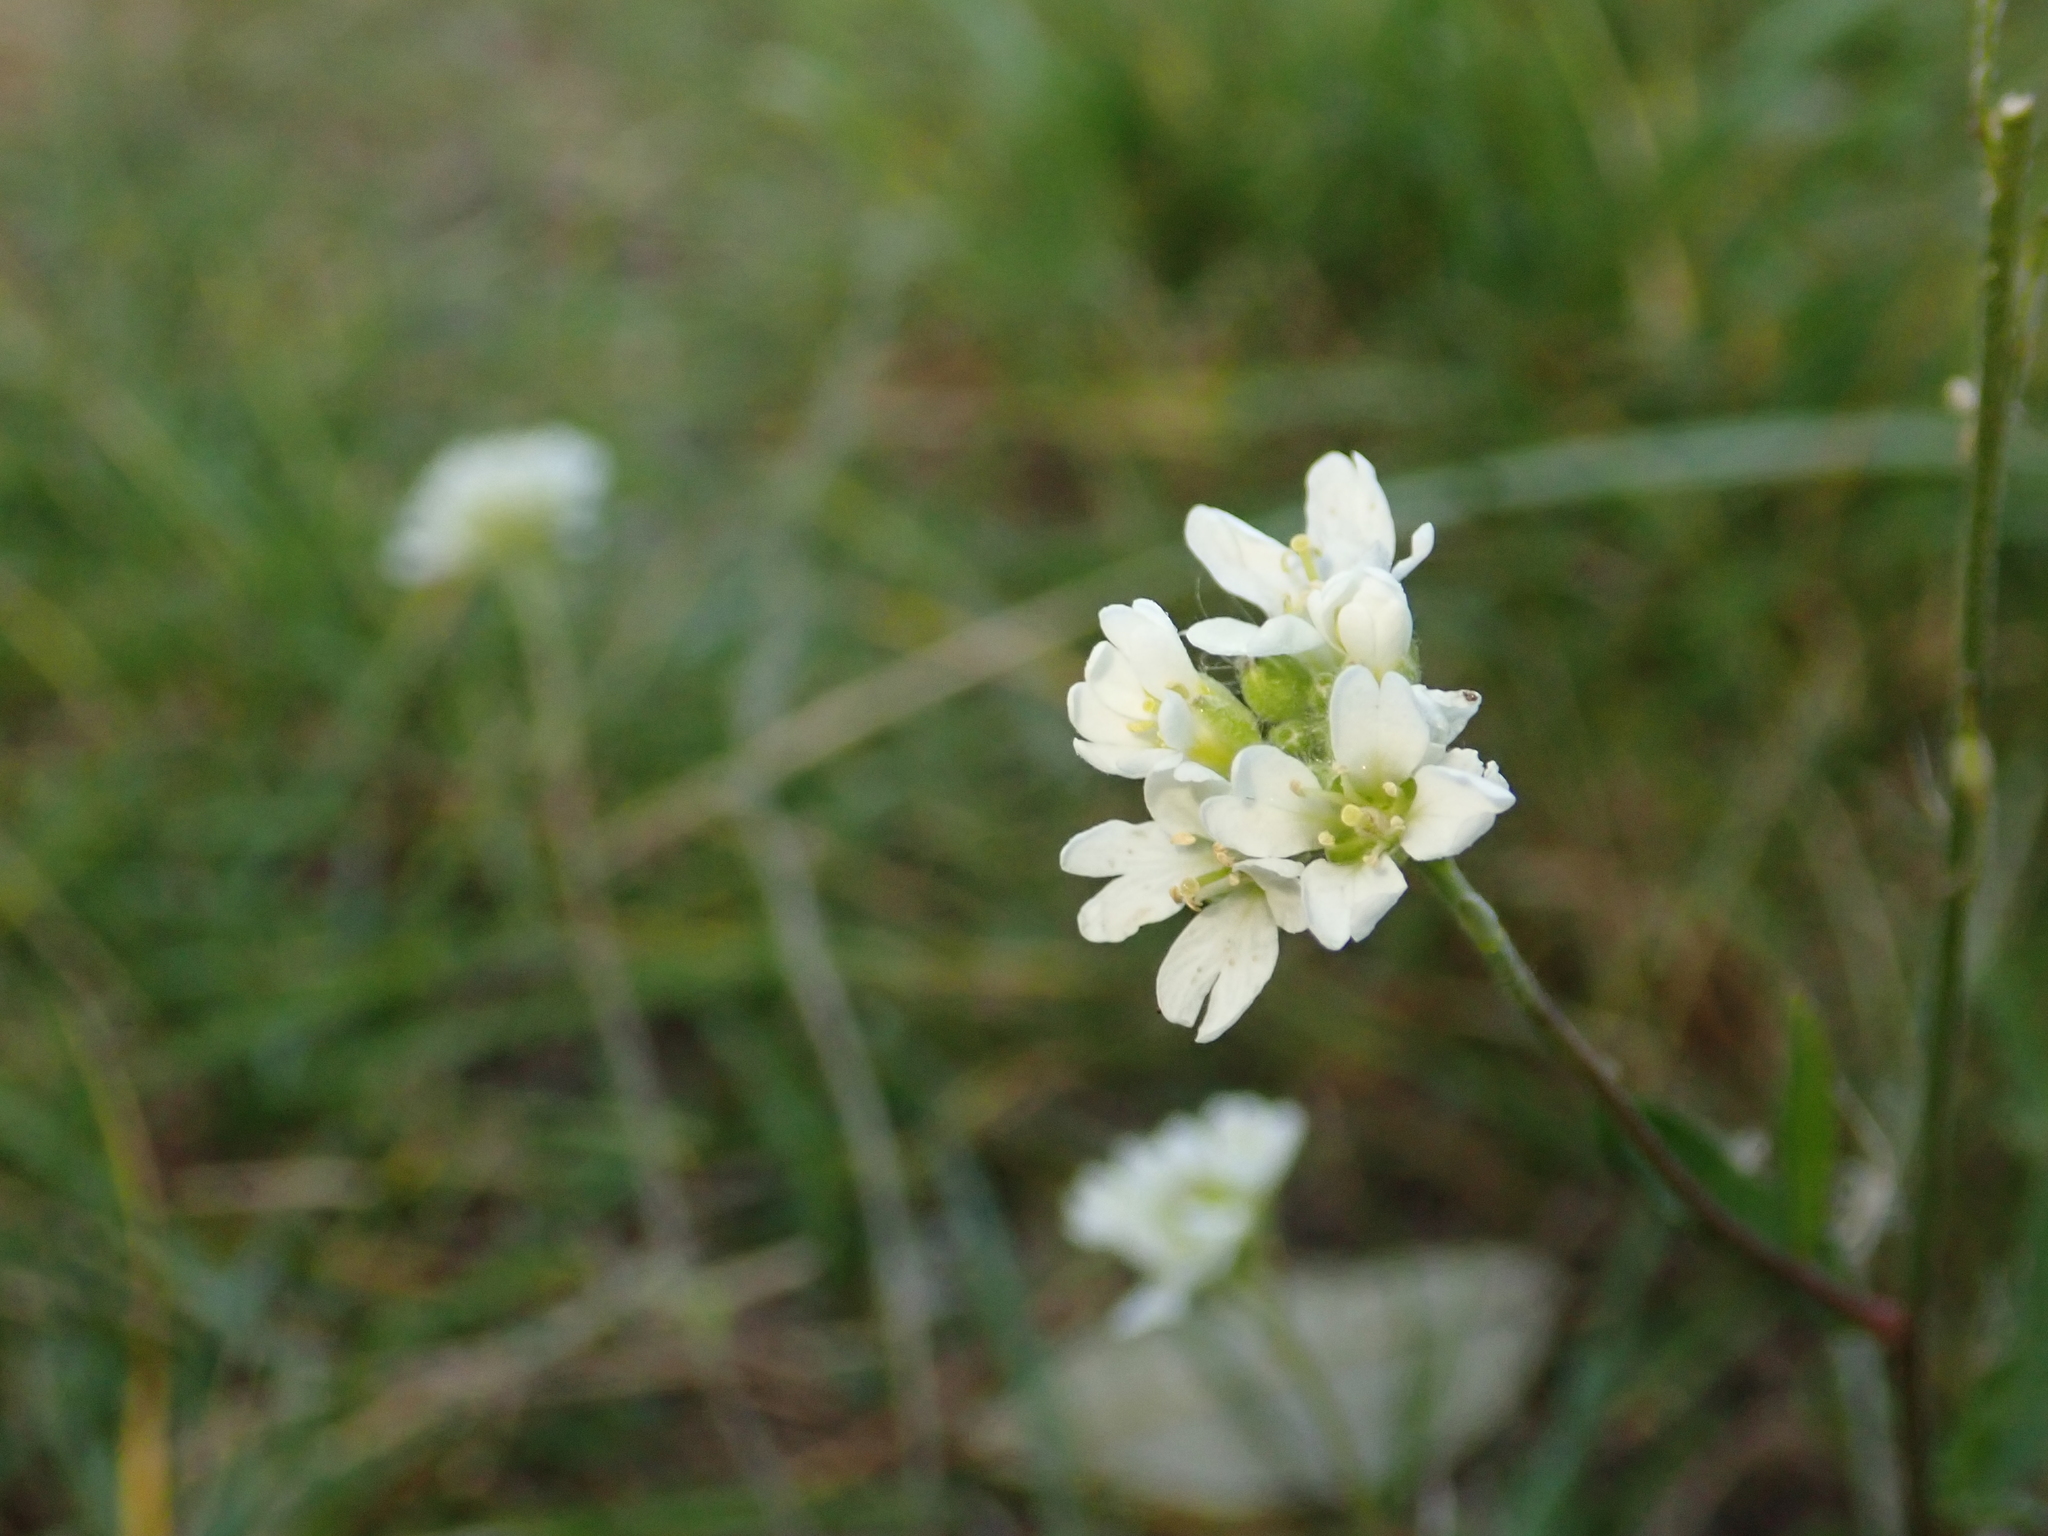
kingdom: Plantae
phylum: Tracheophyta
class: Magnoliopsida
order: Brassicales
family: Brassicaceae
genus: Berteroa
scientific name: Berteroa incana
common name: Hoary alison
